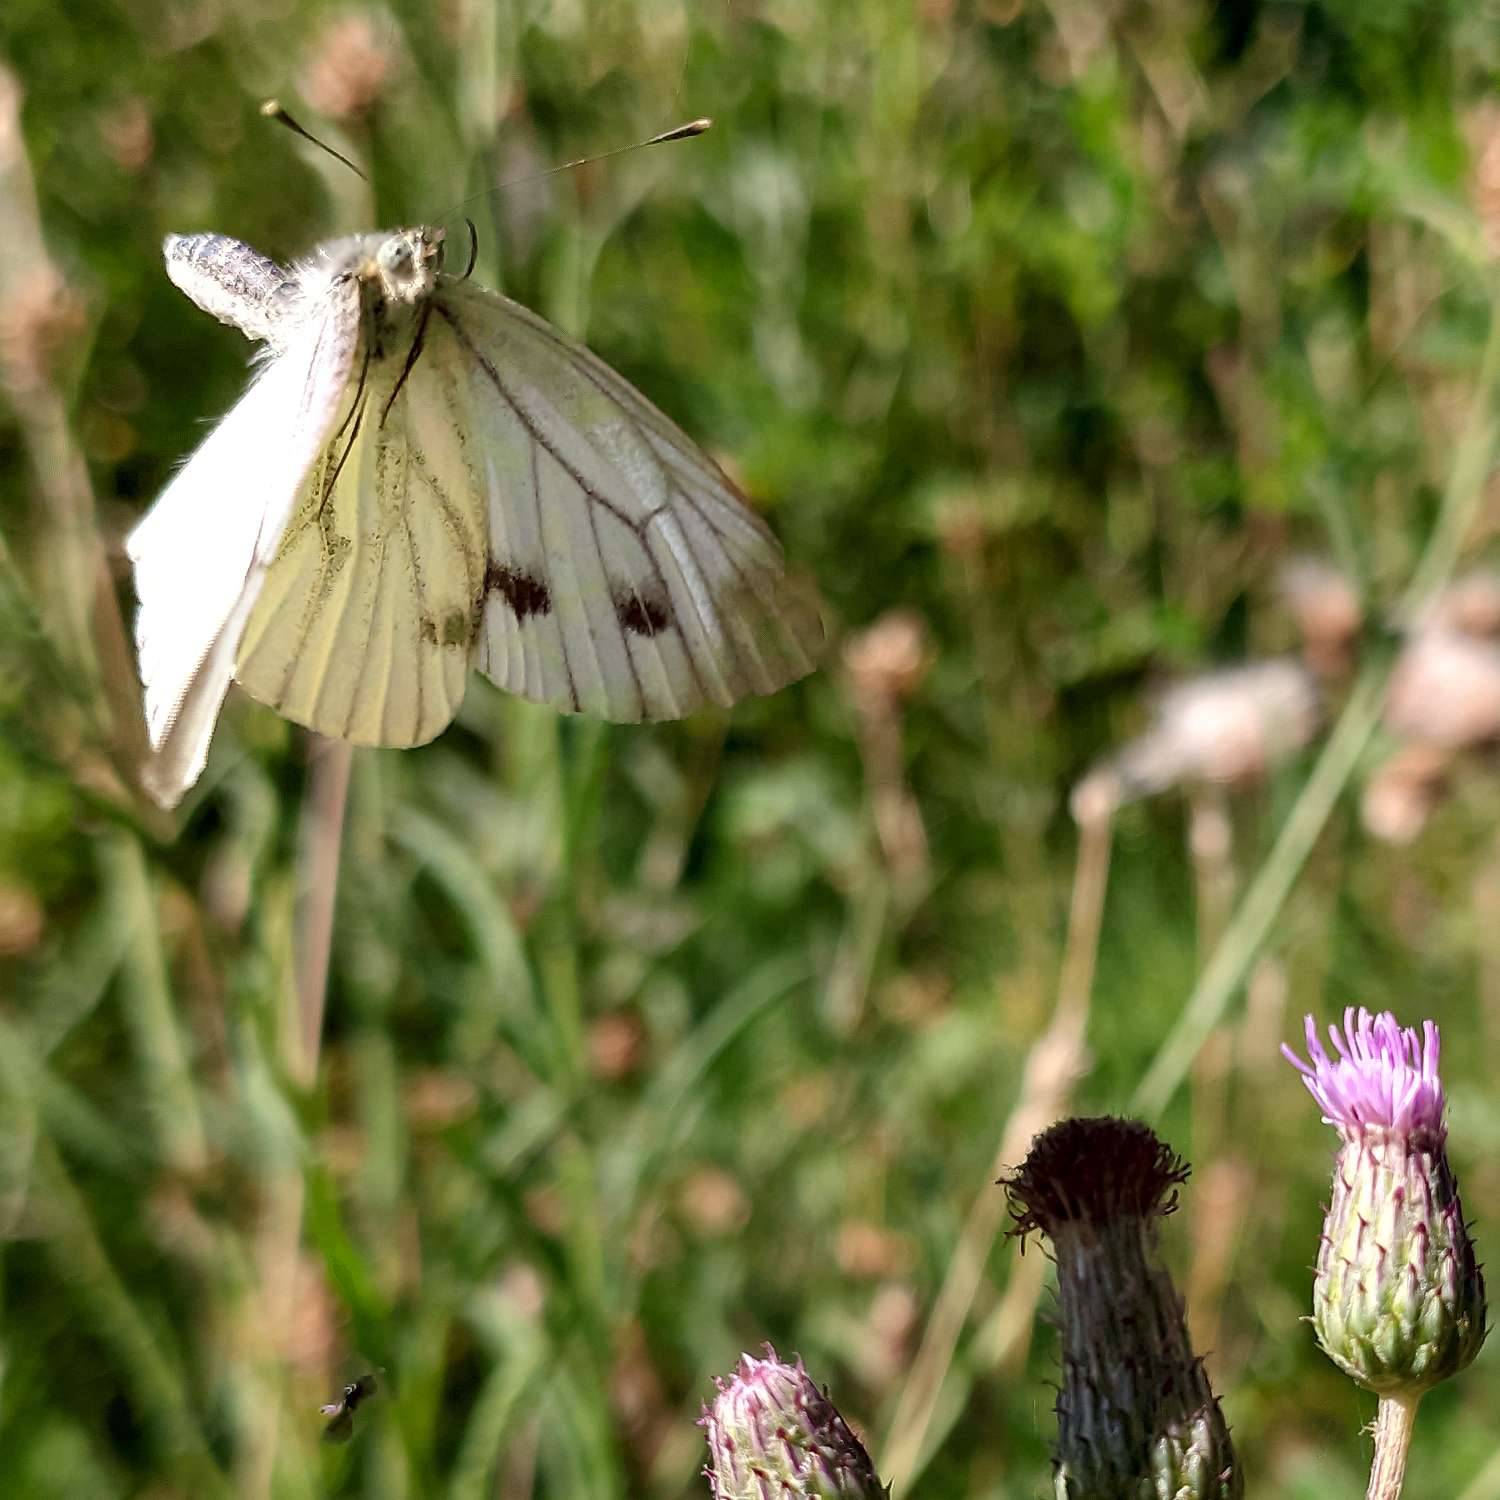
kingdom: Animalia
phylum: Arthropoda
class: Insecta
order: Lepidoptera
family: Pieridae
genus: Pieris
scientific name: Pieris napi
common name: Green-veined white
